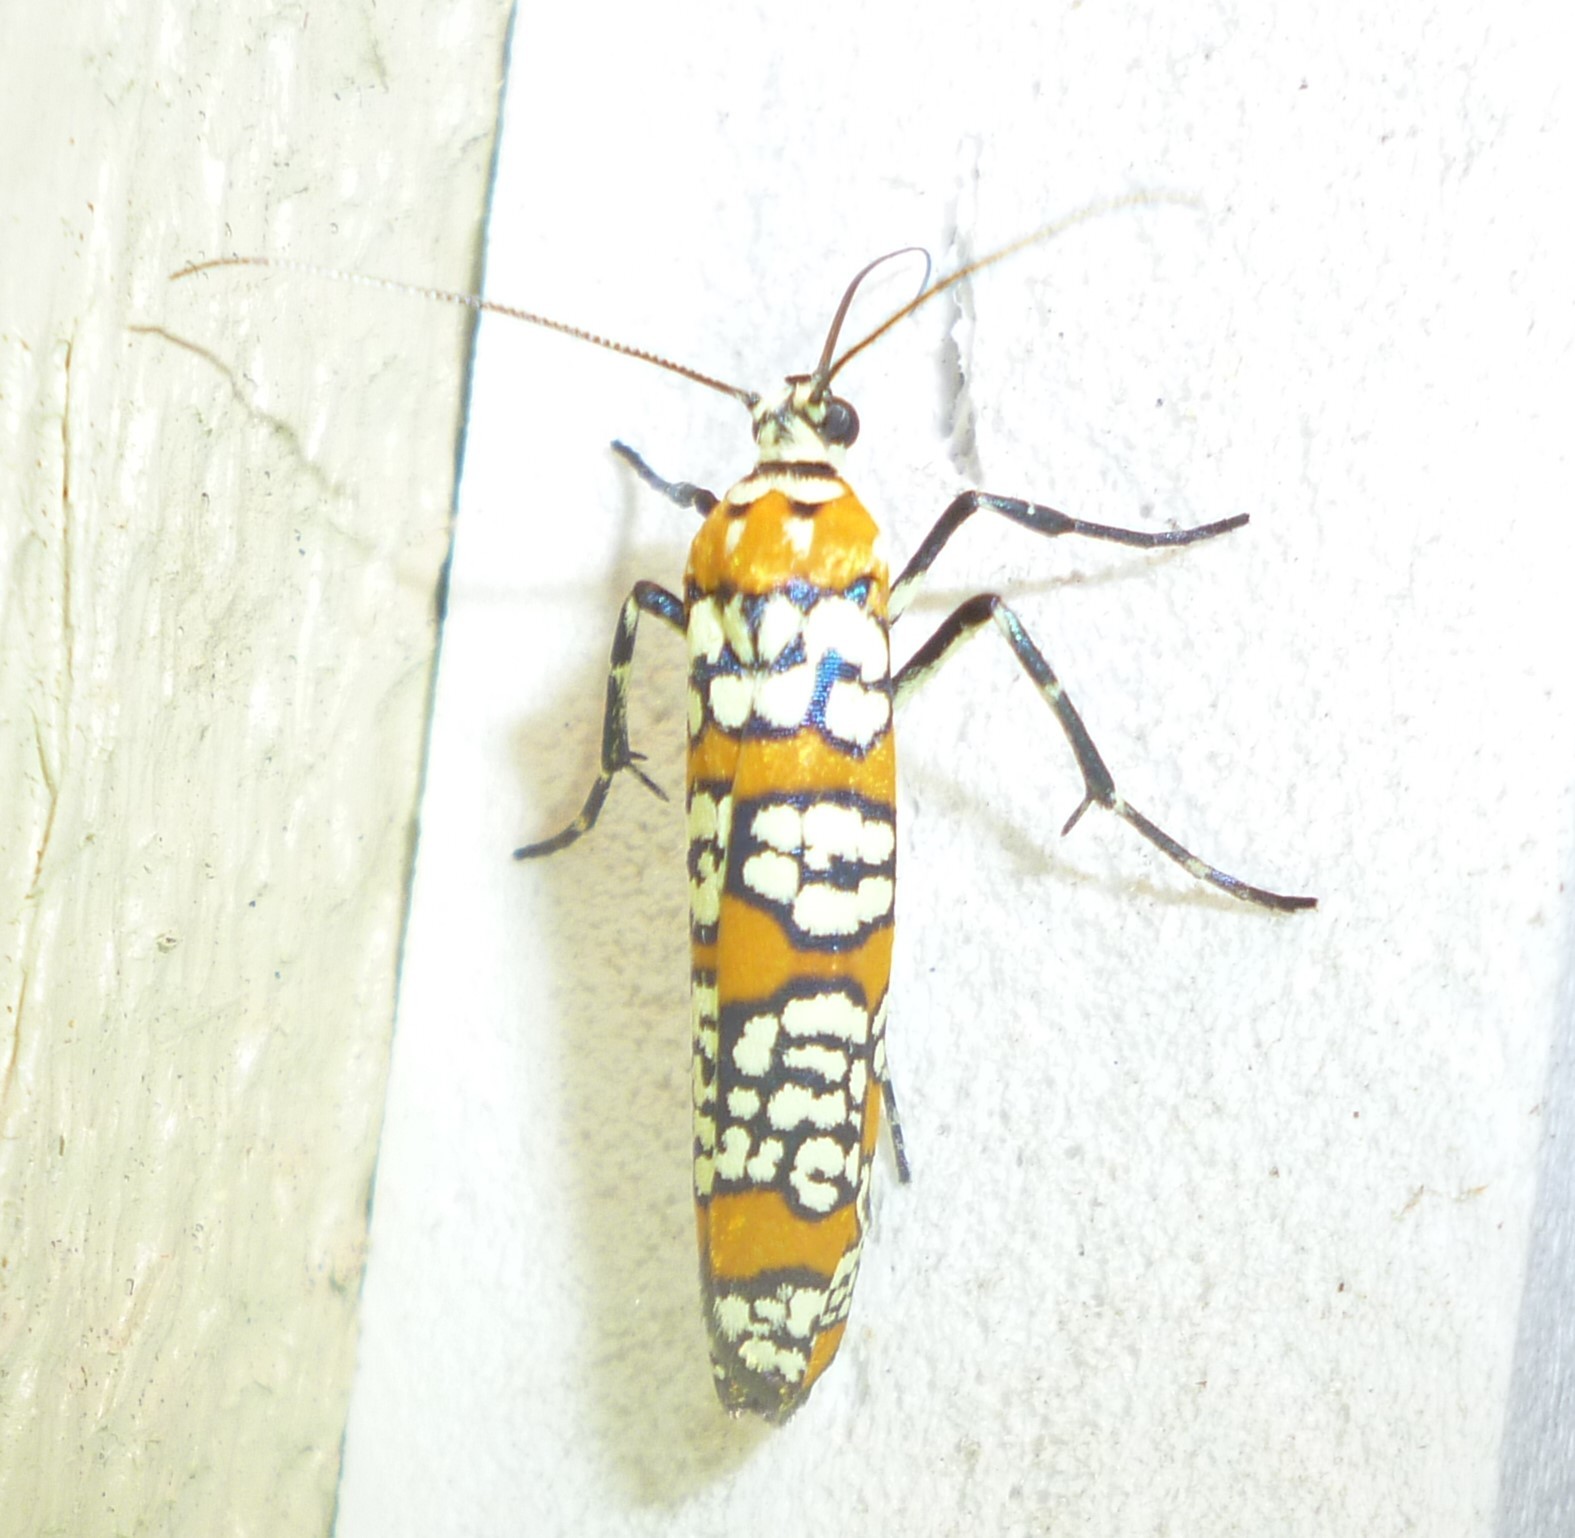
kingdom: Animalia
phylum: Arthropoda
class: Insecta
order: Lepidoptera
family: Attevidae
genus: Atteva
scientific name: Atteva punctella
